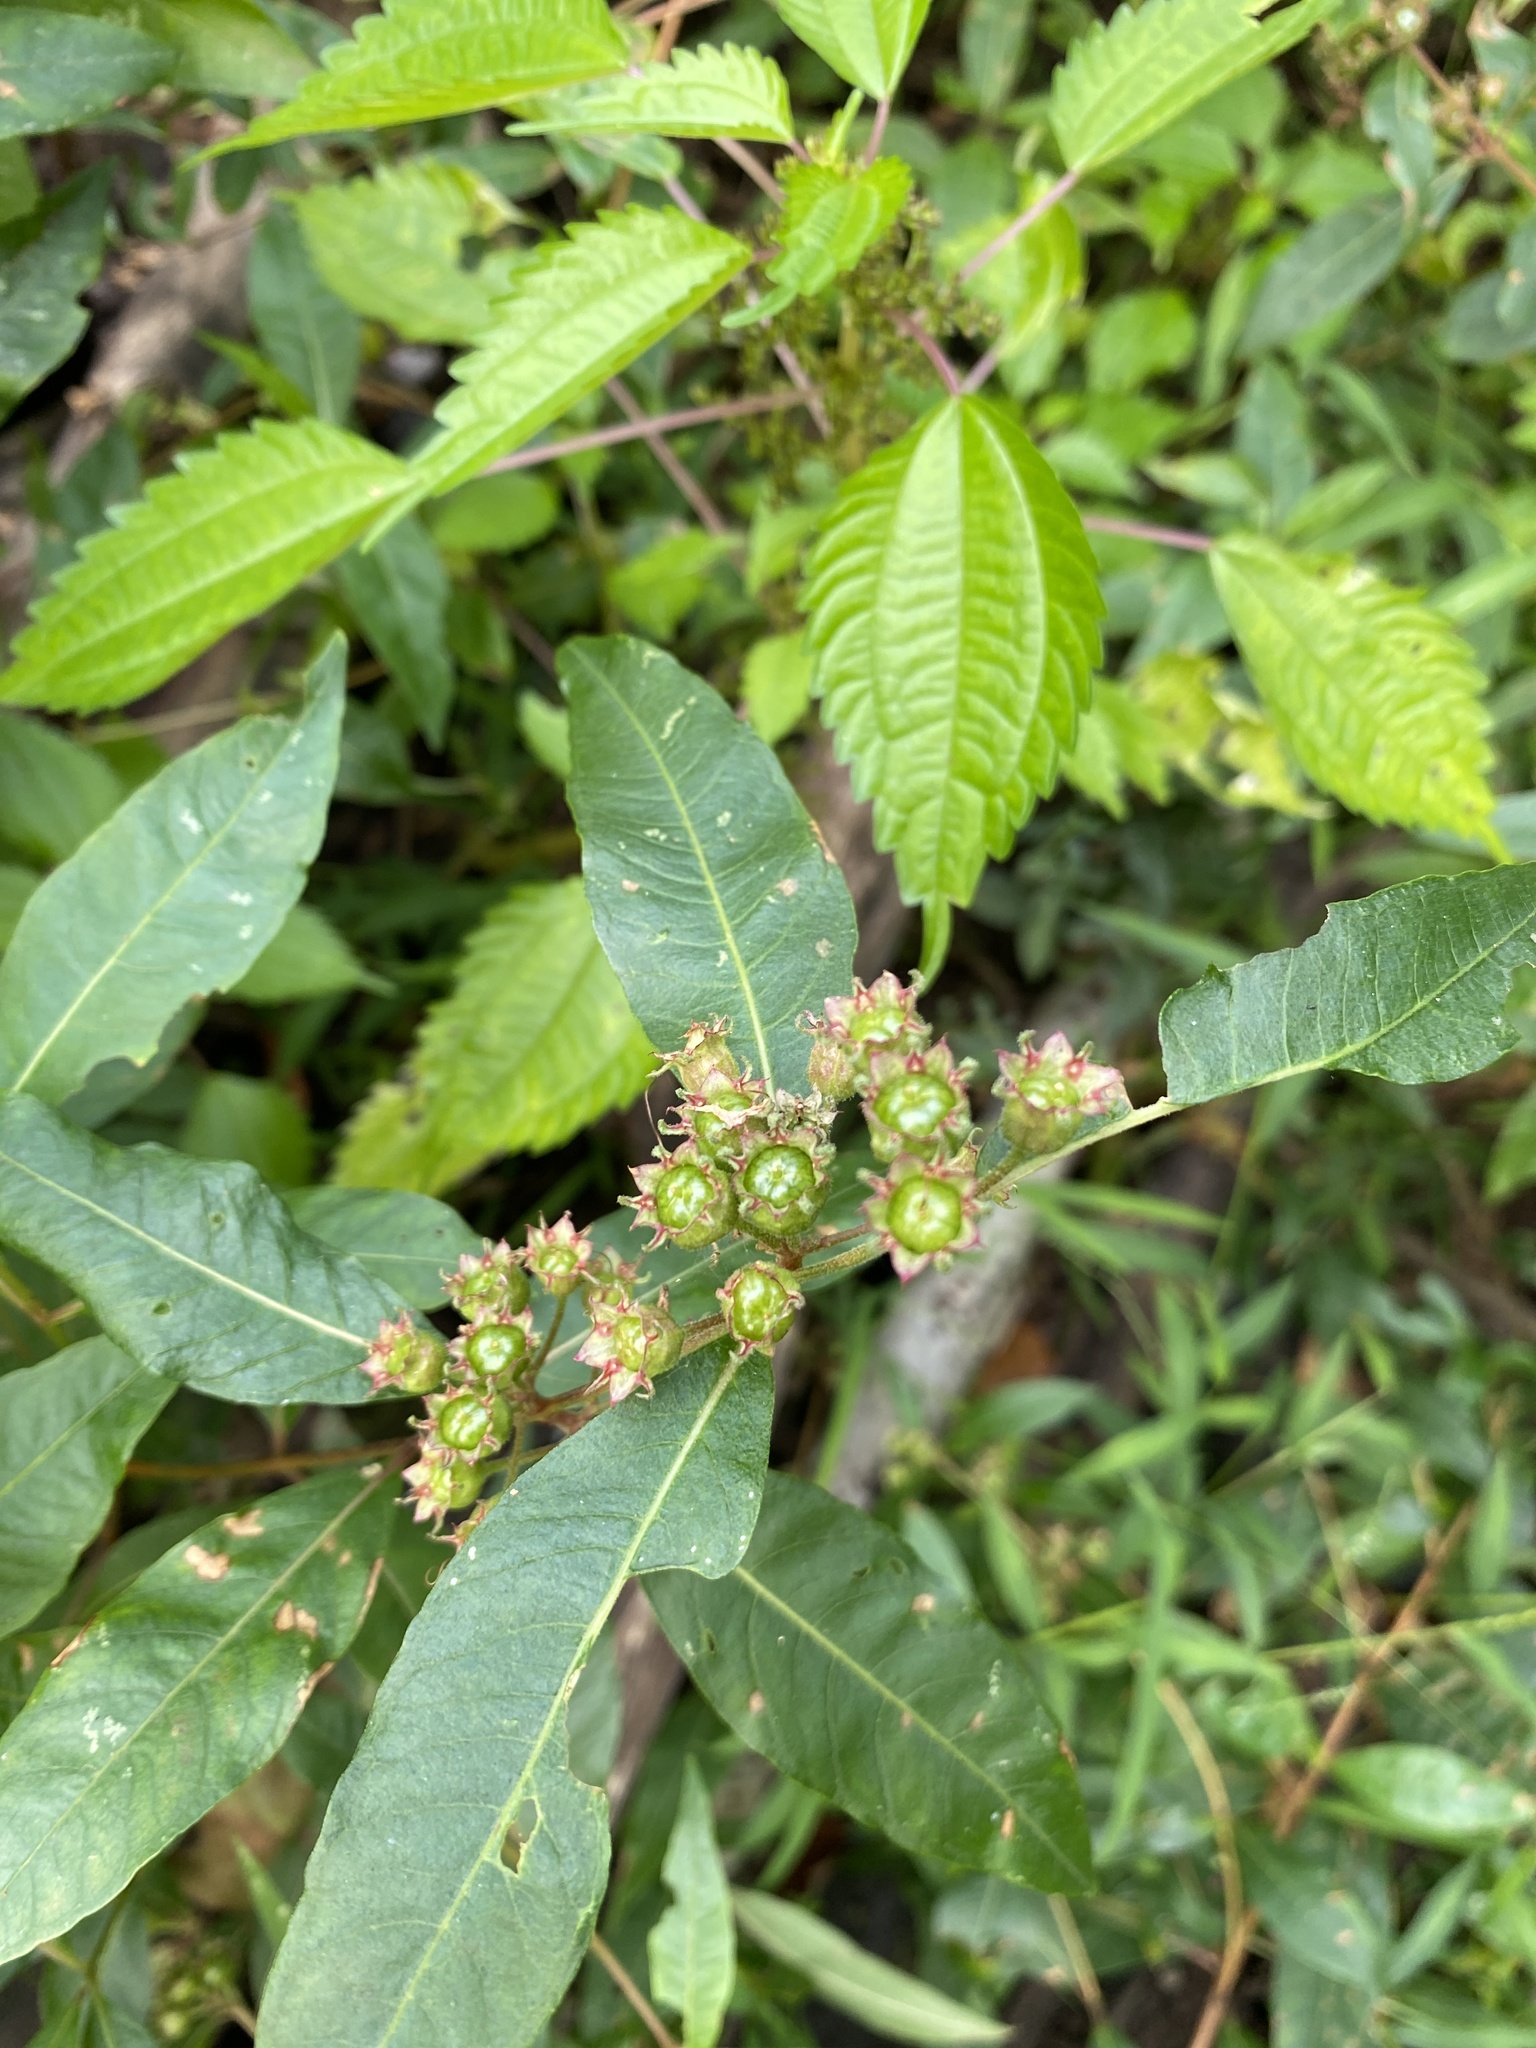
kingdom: Plantae
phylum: Tracheophyta
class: Magnoliopsida
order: Myrtales
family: Lythraceae
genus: Decodon
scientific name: Decodon verticillatus
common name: Hairy swamp loosestrife
